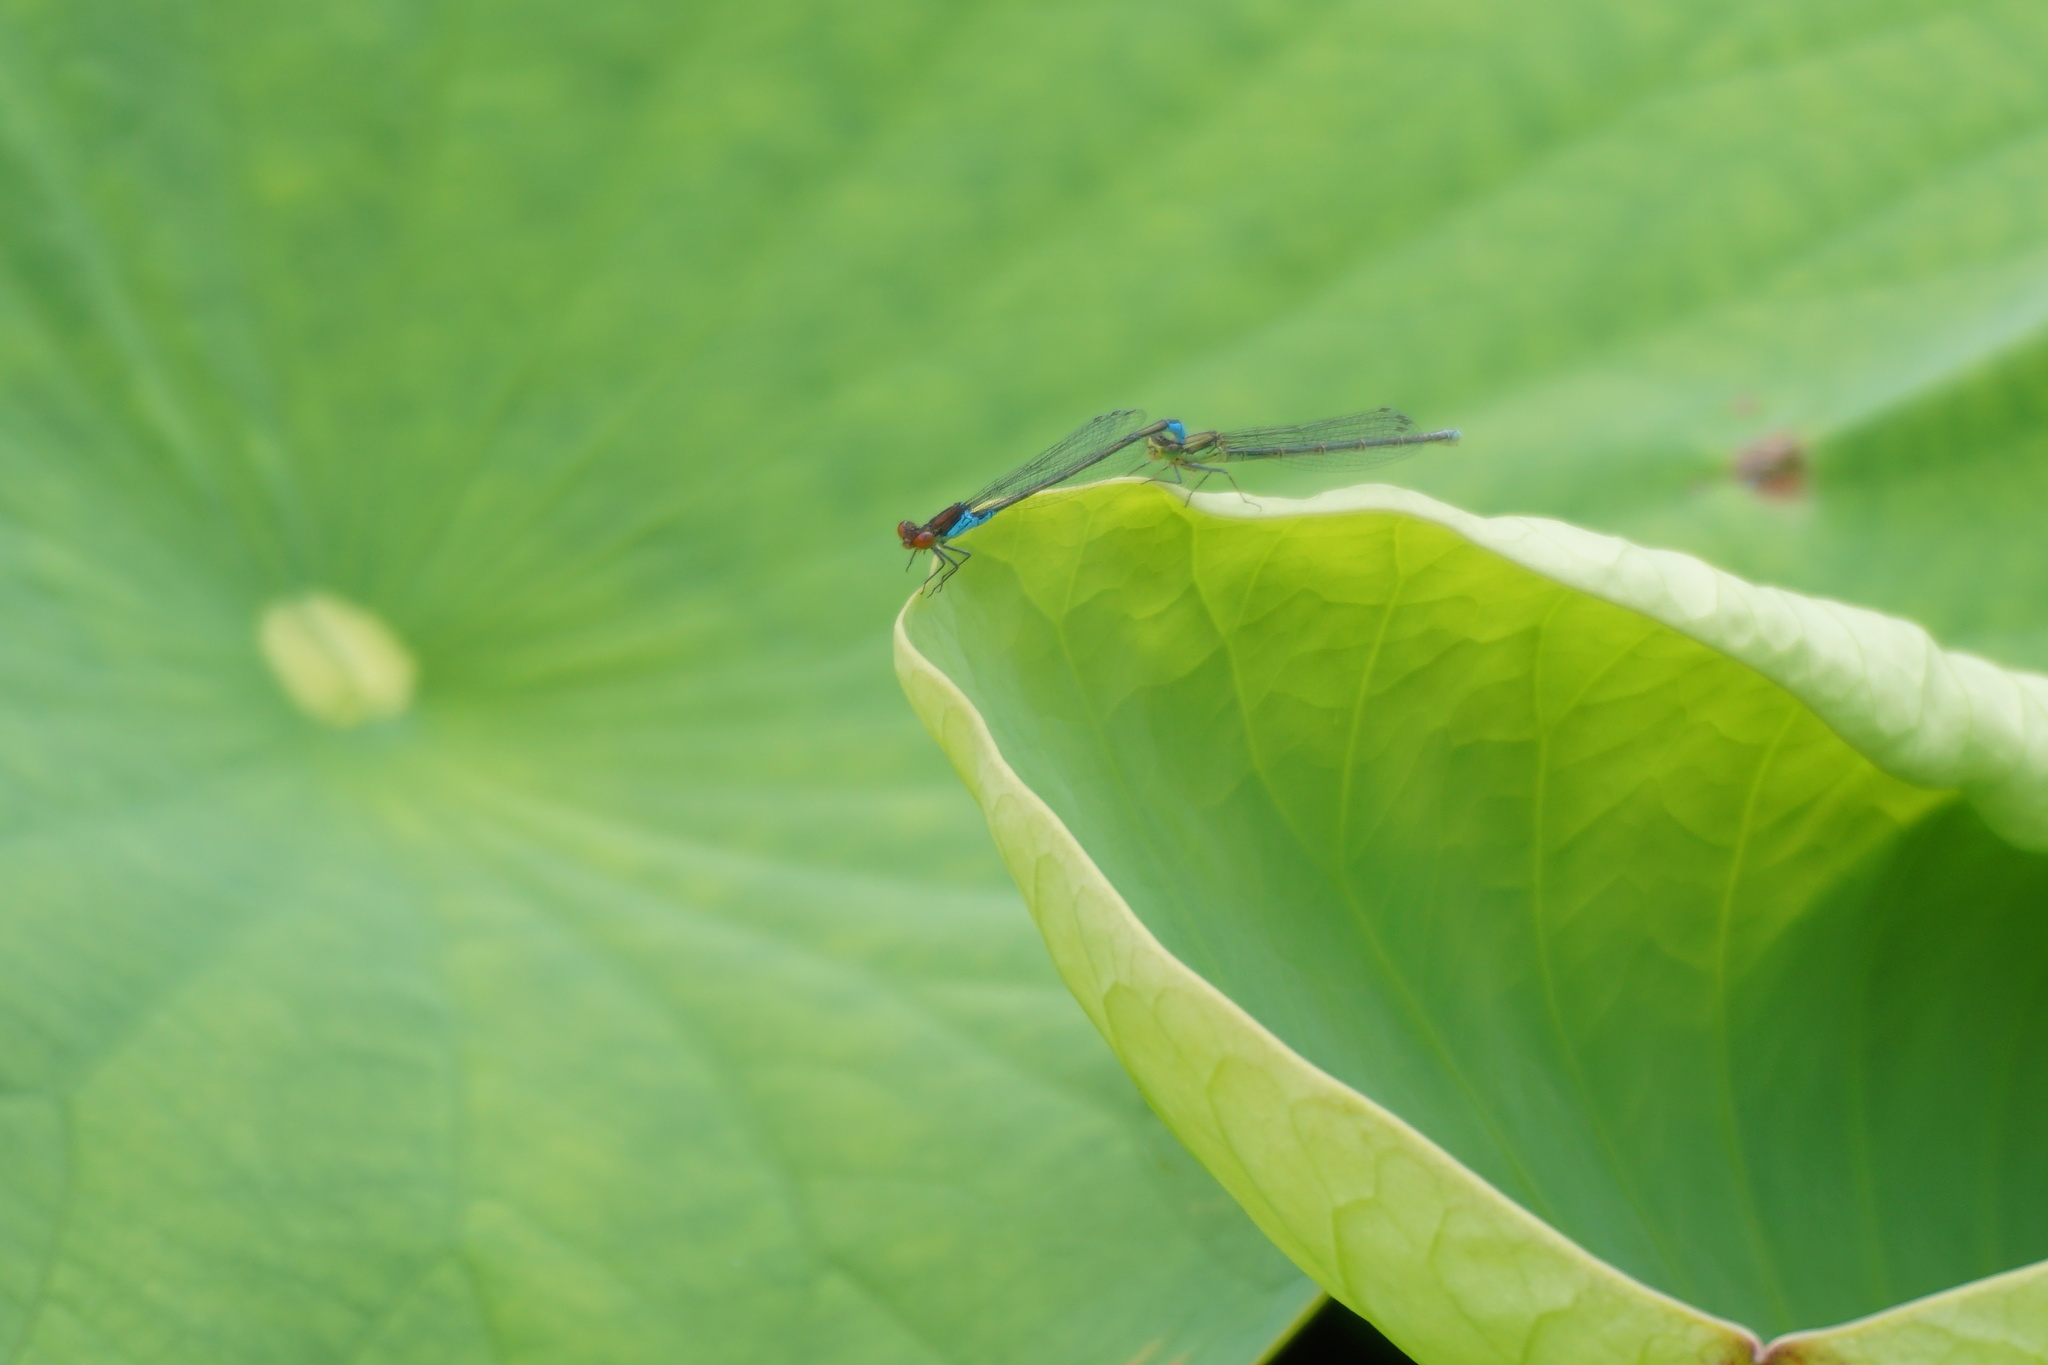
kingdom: Animalia
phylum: Arthropoda
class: Insecta
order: Odonata
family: Coenagrionidae
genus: Erythromma
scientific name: Erythromma viridulum
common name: Small red-eyed damselfly
